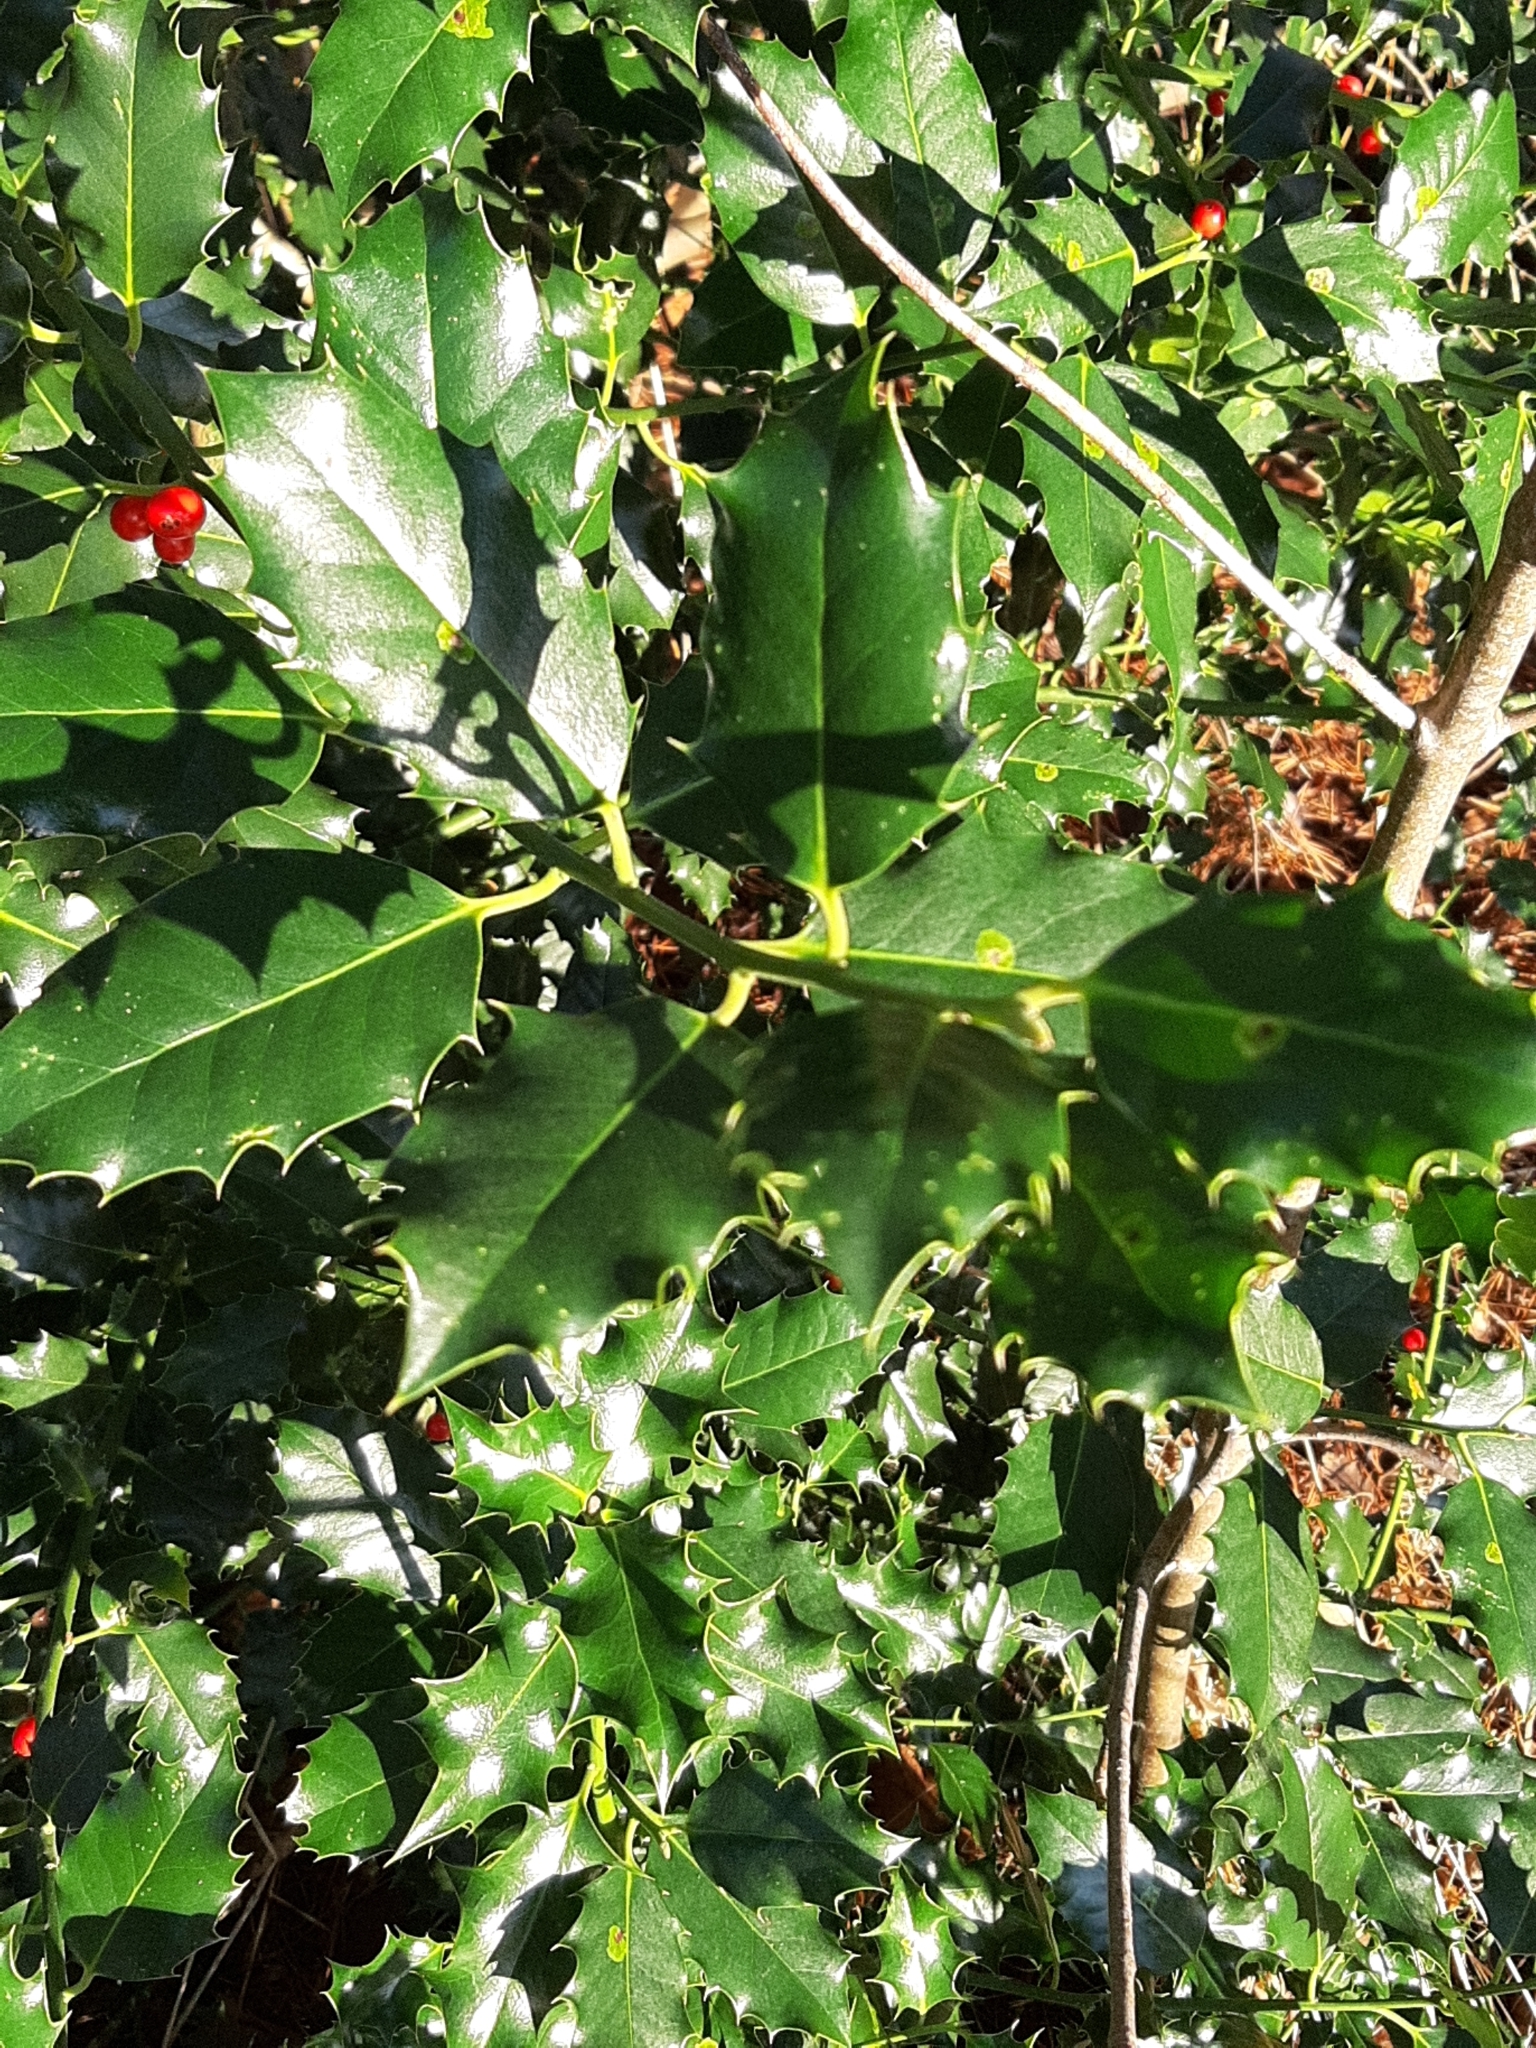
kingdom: Plantae
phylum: Tracheophyta
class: Magnoliopsida
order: Aquifoliales
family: Aquifoliaceae
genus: Ilex
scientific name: Ilex aquifolium
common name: English holly
